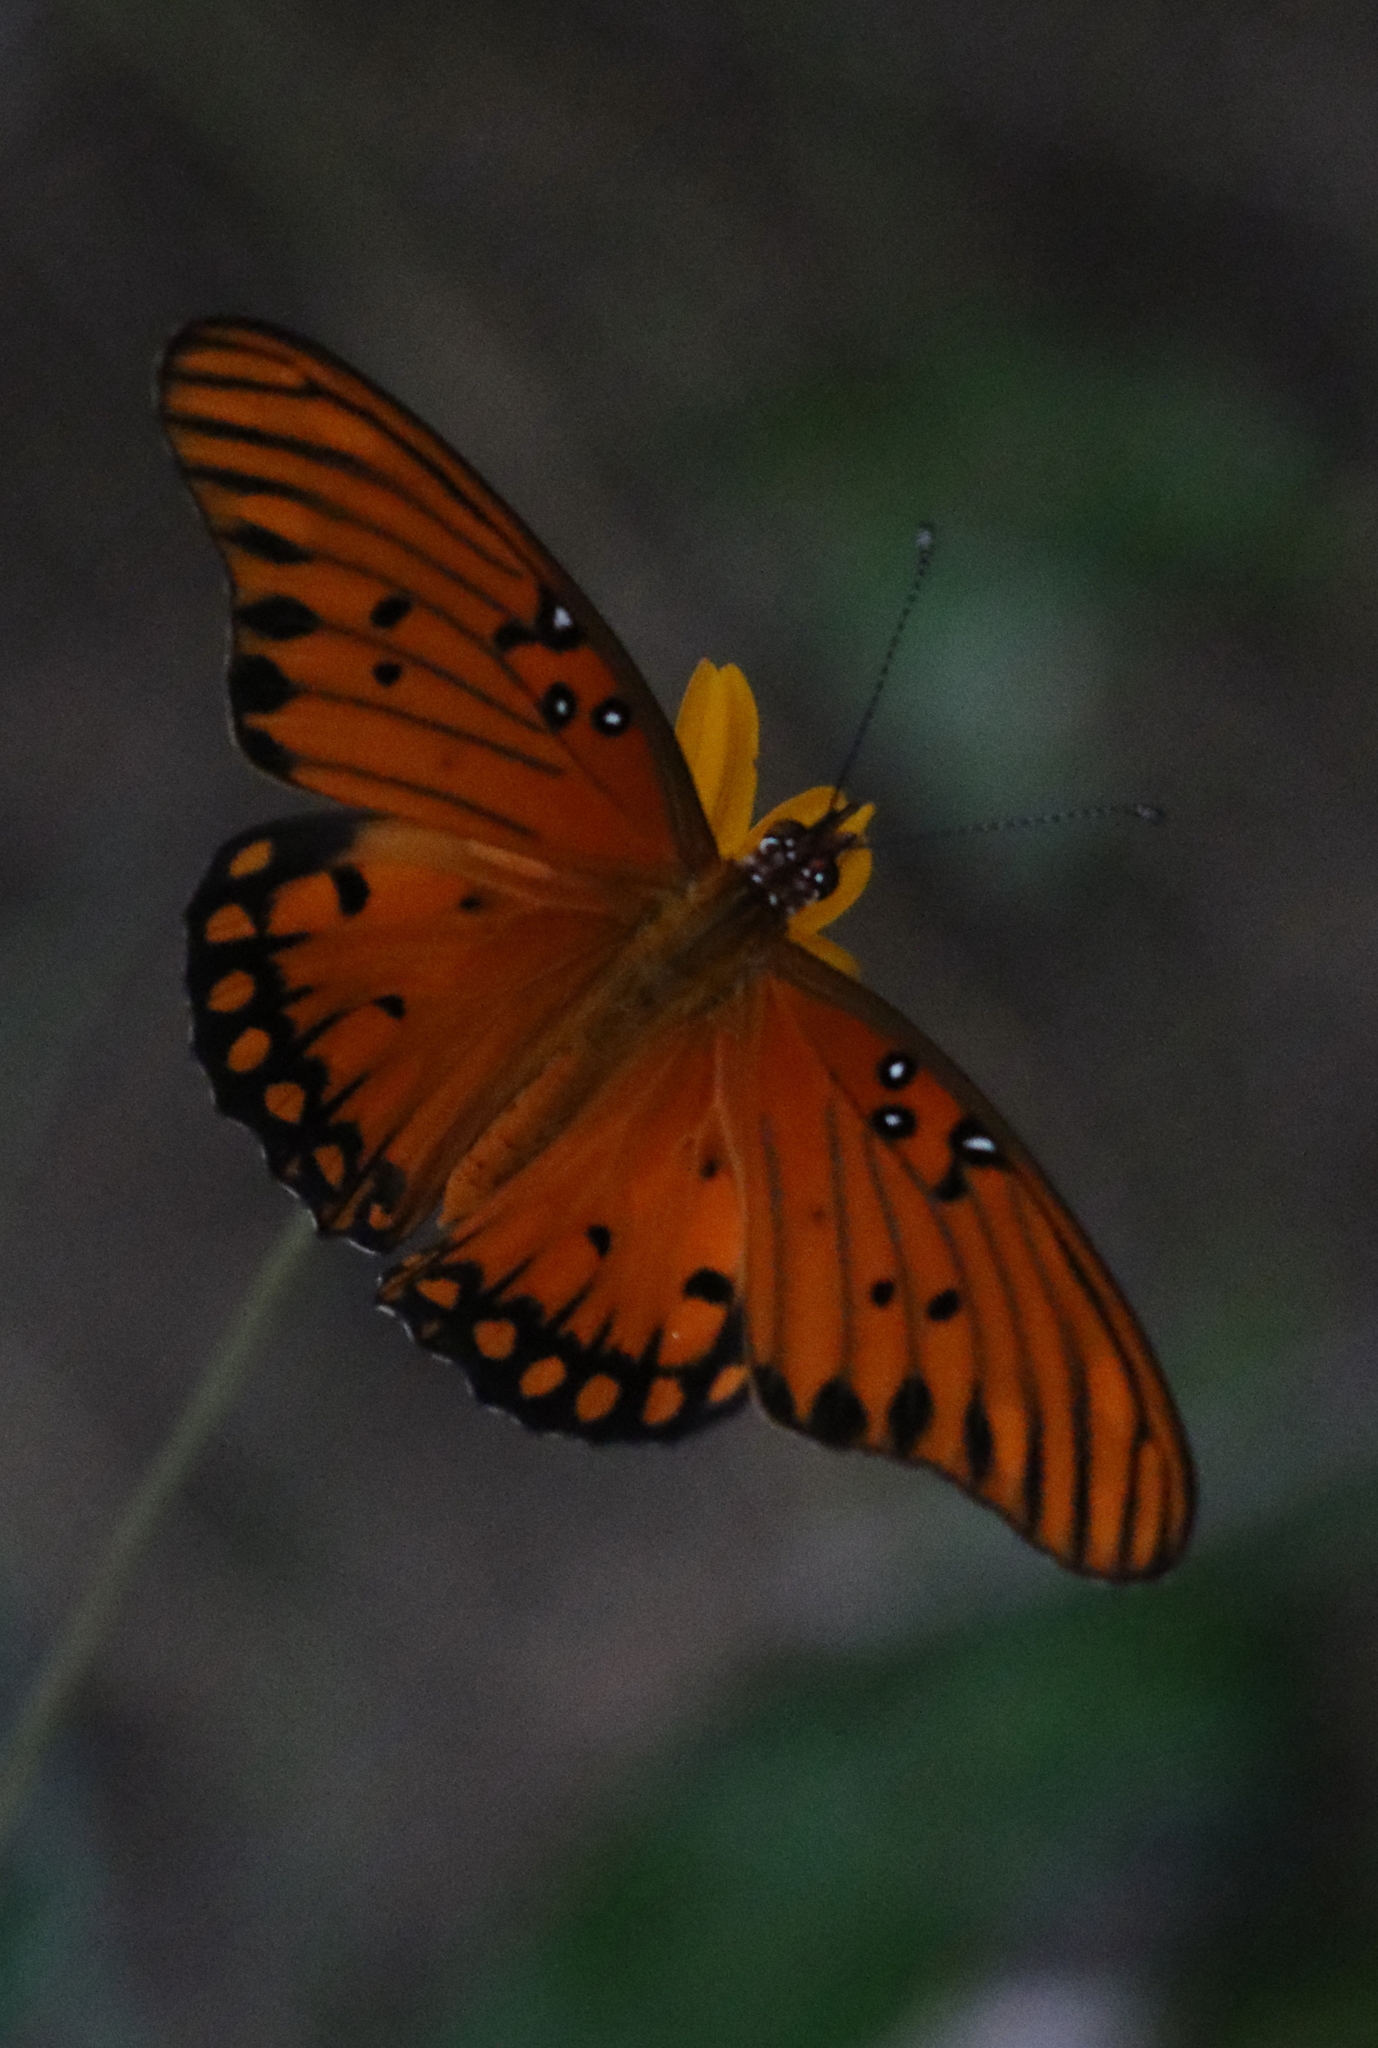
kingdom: Animalia
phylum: Arthropoda
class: Insecta
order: Lepidoptera
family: Nymphalidae
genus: Dione
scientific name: Dione vanillae
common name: Gulf fritillary
